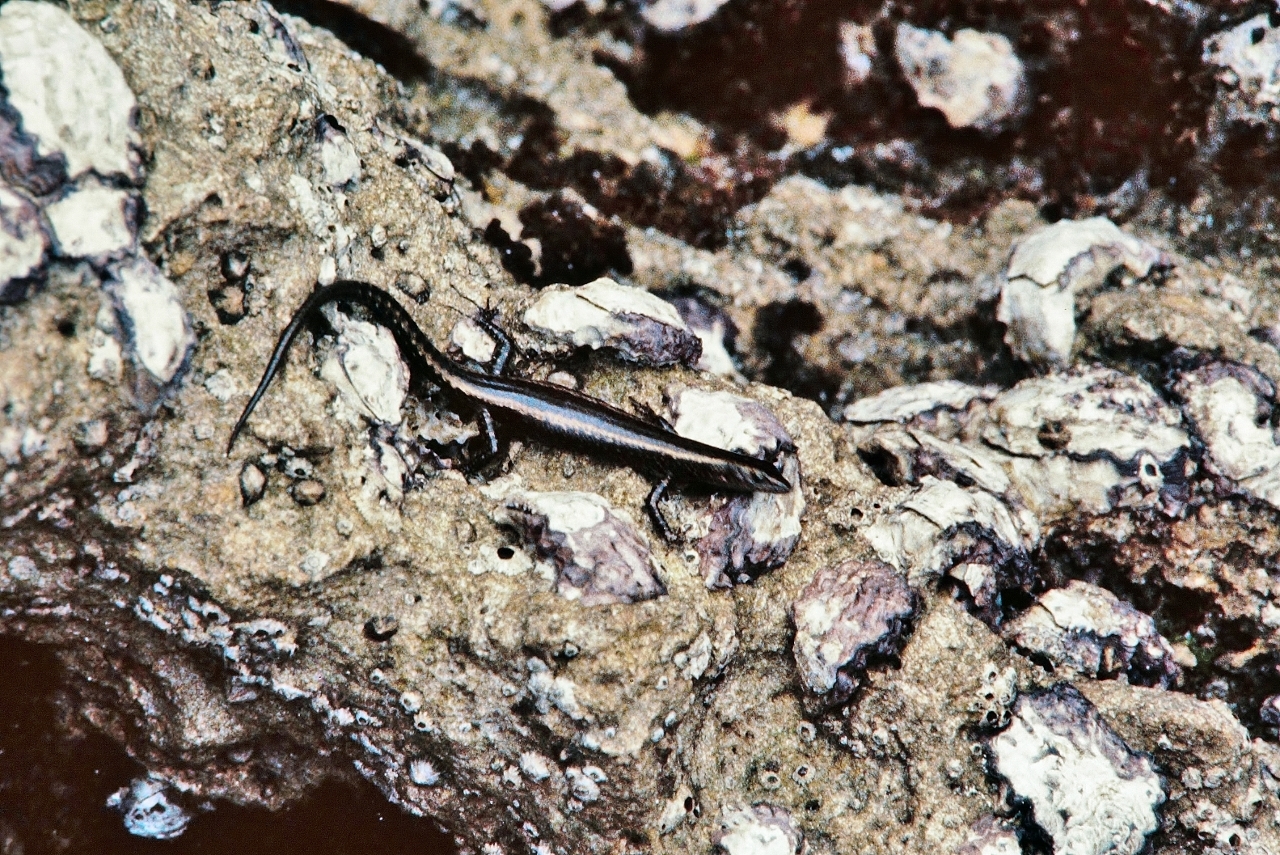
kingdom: Animalia
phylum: Chordata
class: Squamata
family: Scincidae
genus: Cryptoblepharus
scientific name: Cryptoblepharus africanus
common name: African coral rag skink
